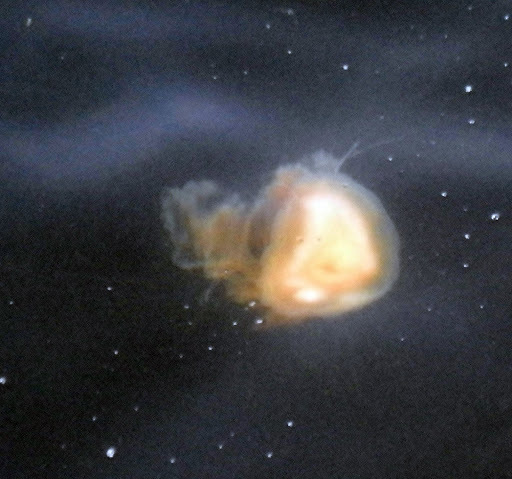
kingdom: Animalia
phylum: Cnidaria
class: Scyphozoa
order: Semaeostomeae
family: Phacellophoridae
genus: Phacellophora
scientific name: Phacellophora camtschatica
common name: Fried-egg jellyfish
